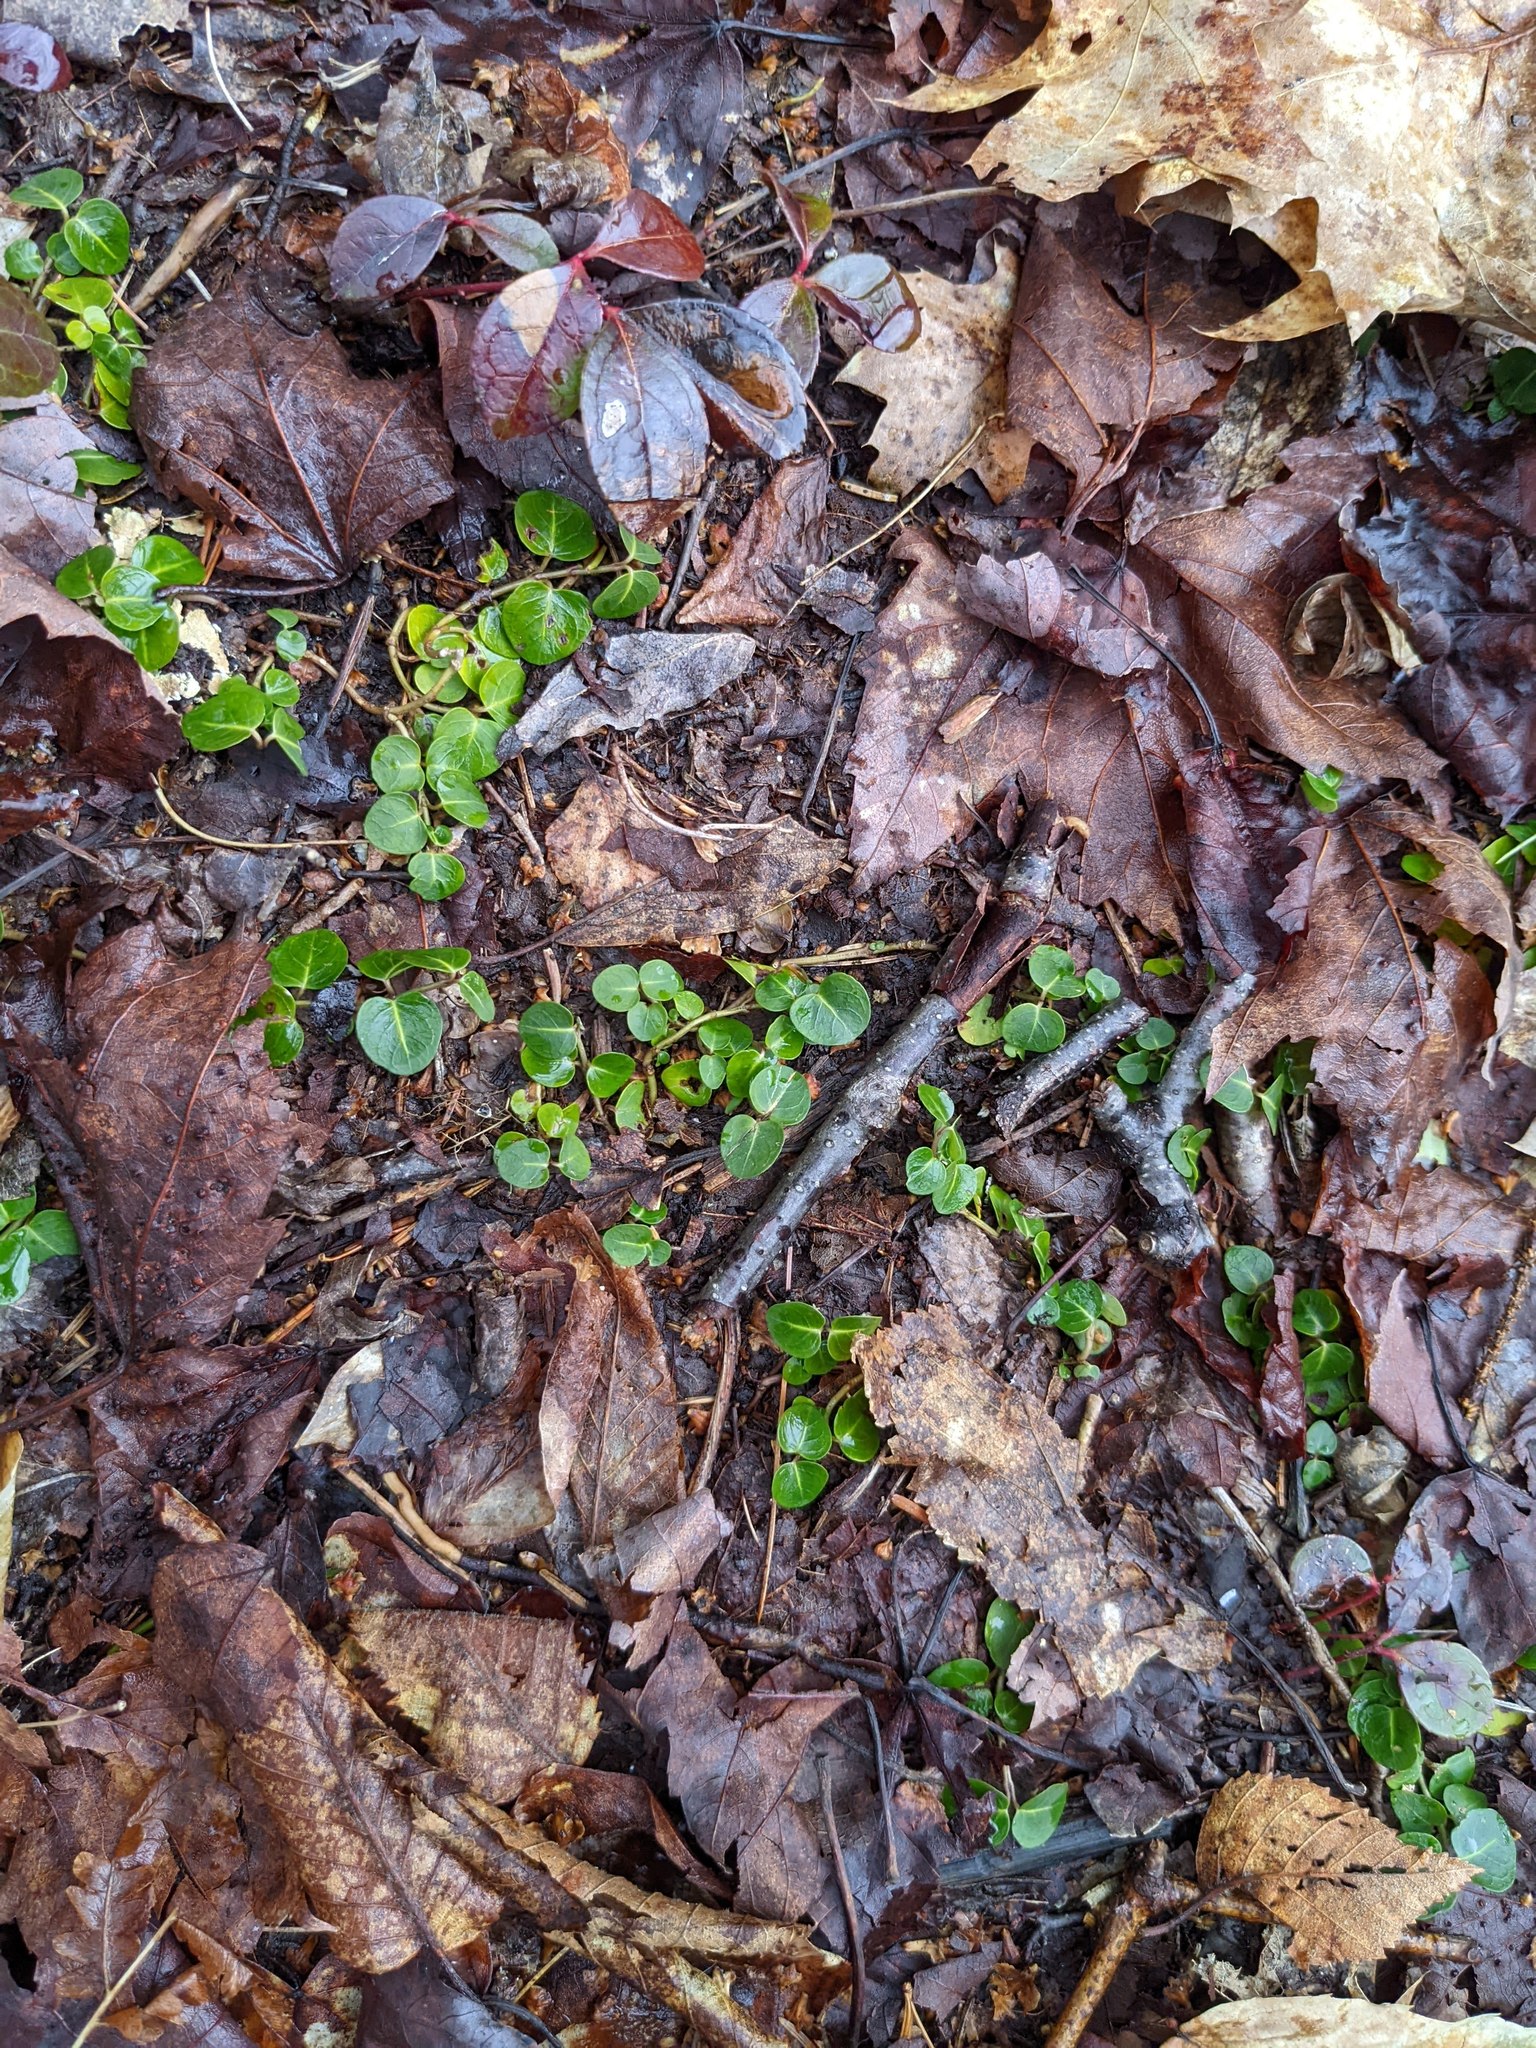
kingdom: Plantae
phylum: Tracheophyta
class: Magnoliopsida
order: Gentianales
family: Rubiaceae
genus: Mitchella
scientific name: Mitchella repens
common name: Partridge-berry
